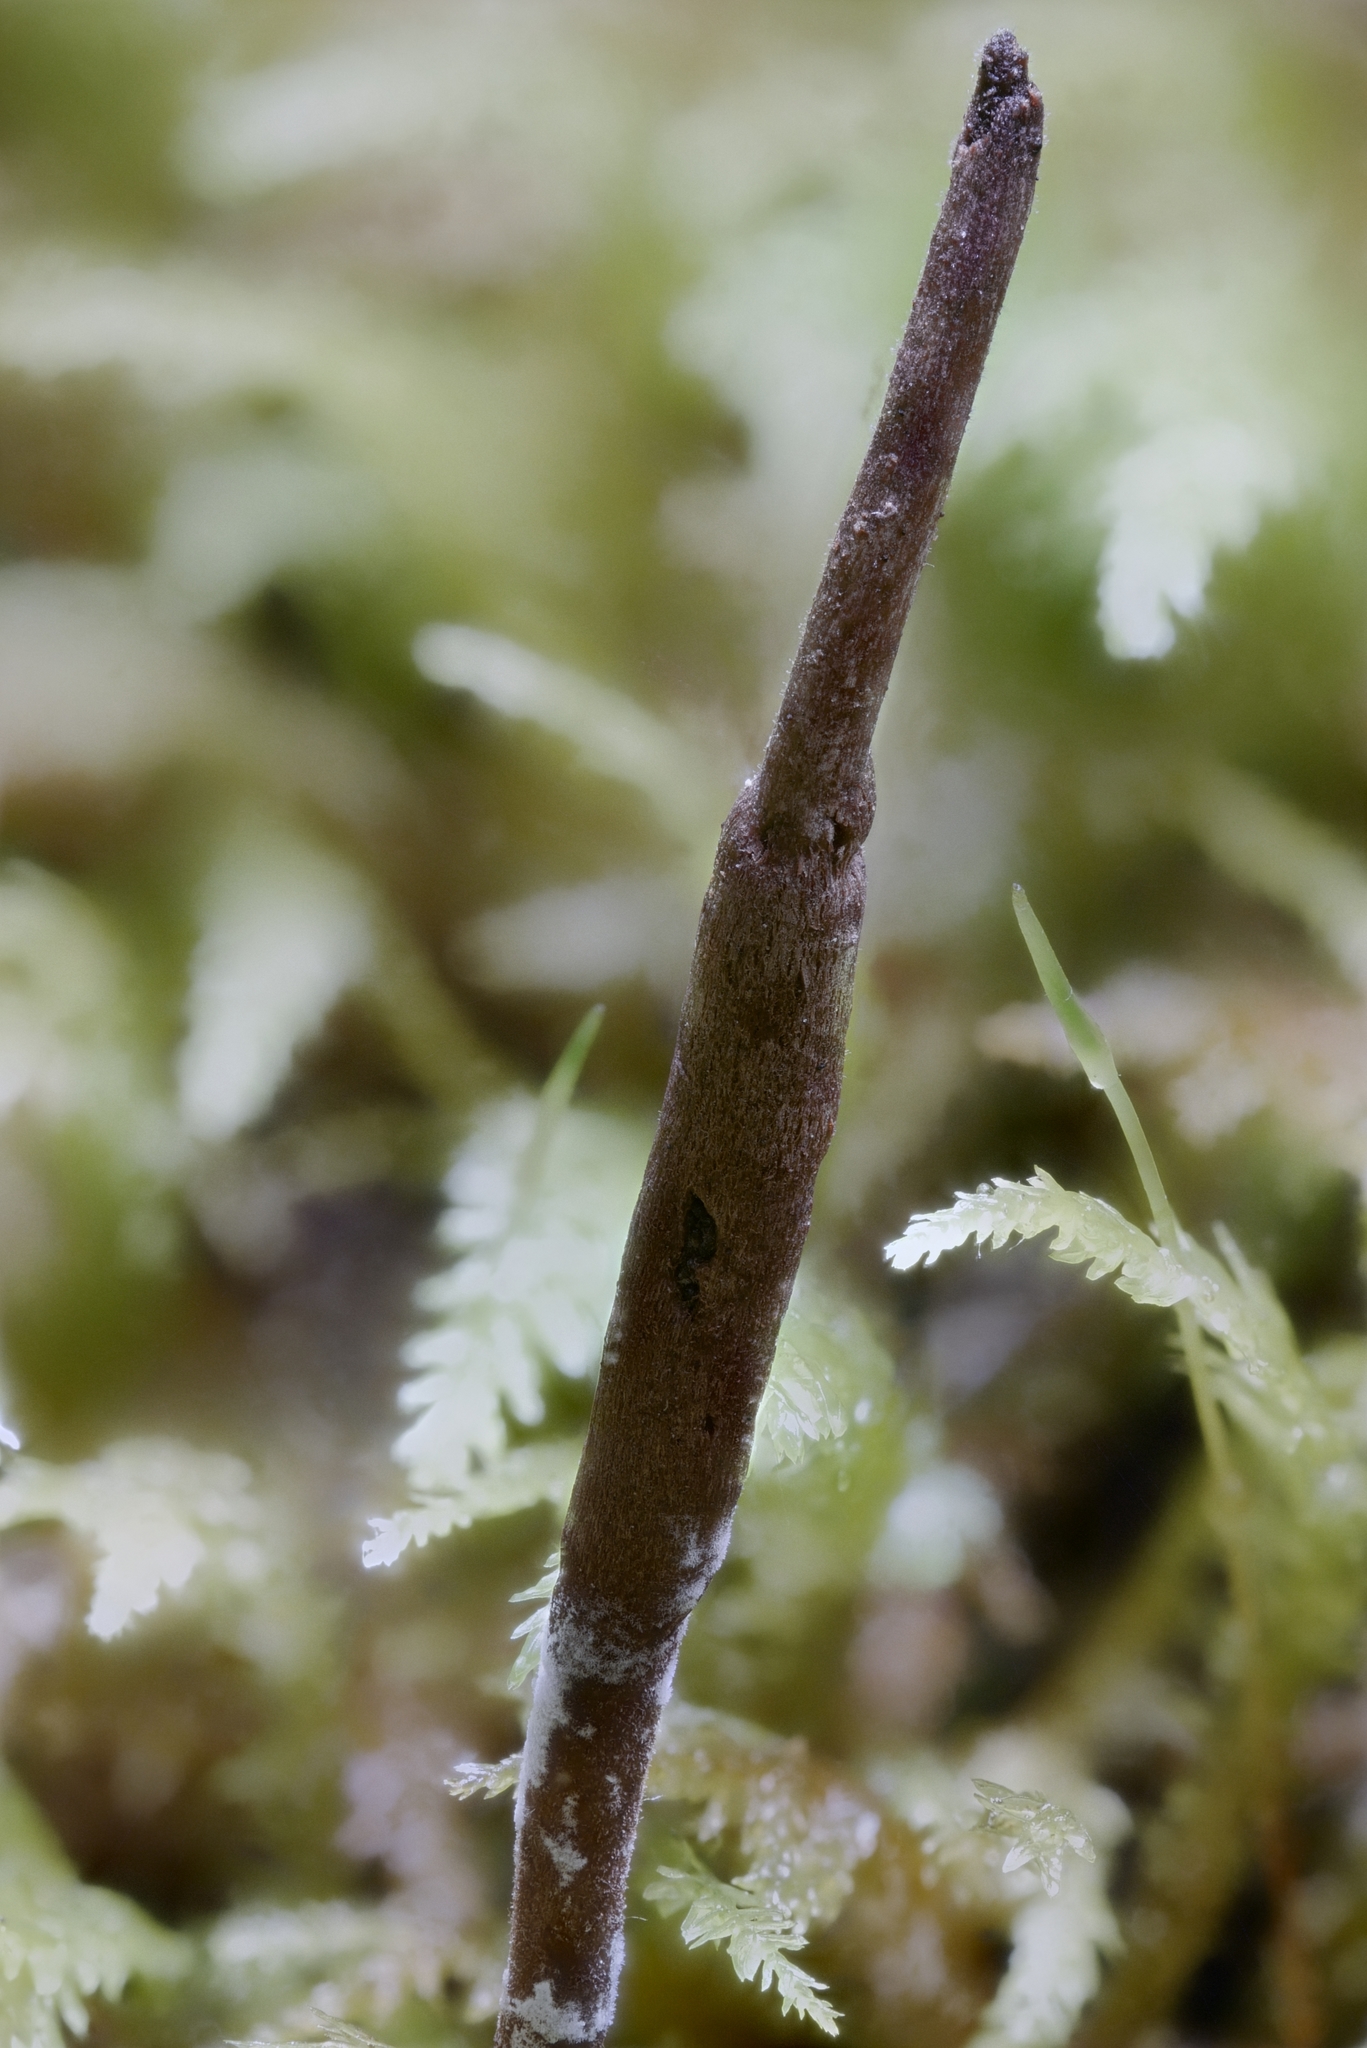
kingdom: Fungi
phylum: Ascomycota
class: Sordariomycetes
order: Hypocreales
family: Ophiocordycipitaceae
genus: Ophiocordyceps
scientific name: Ophiocordyceps stylophora
